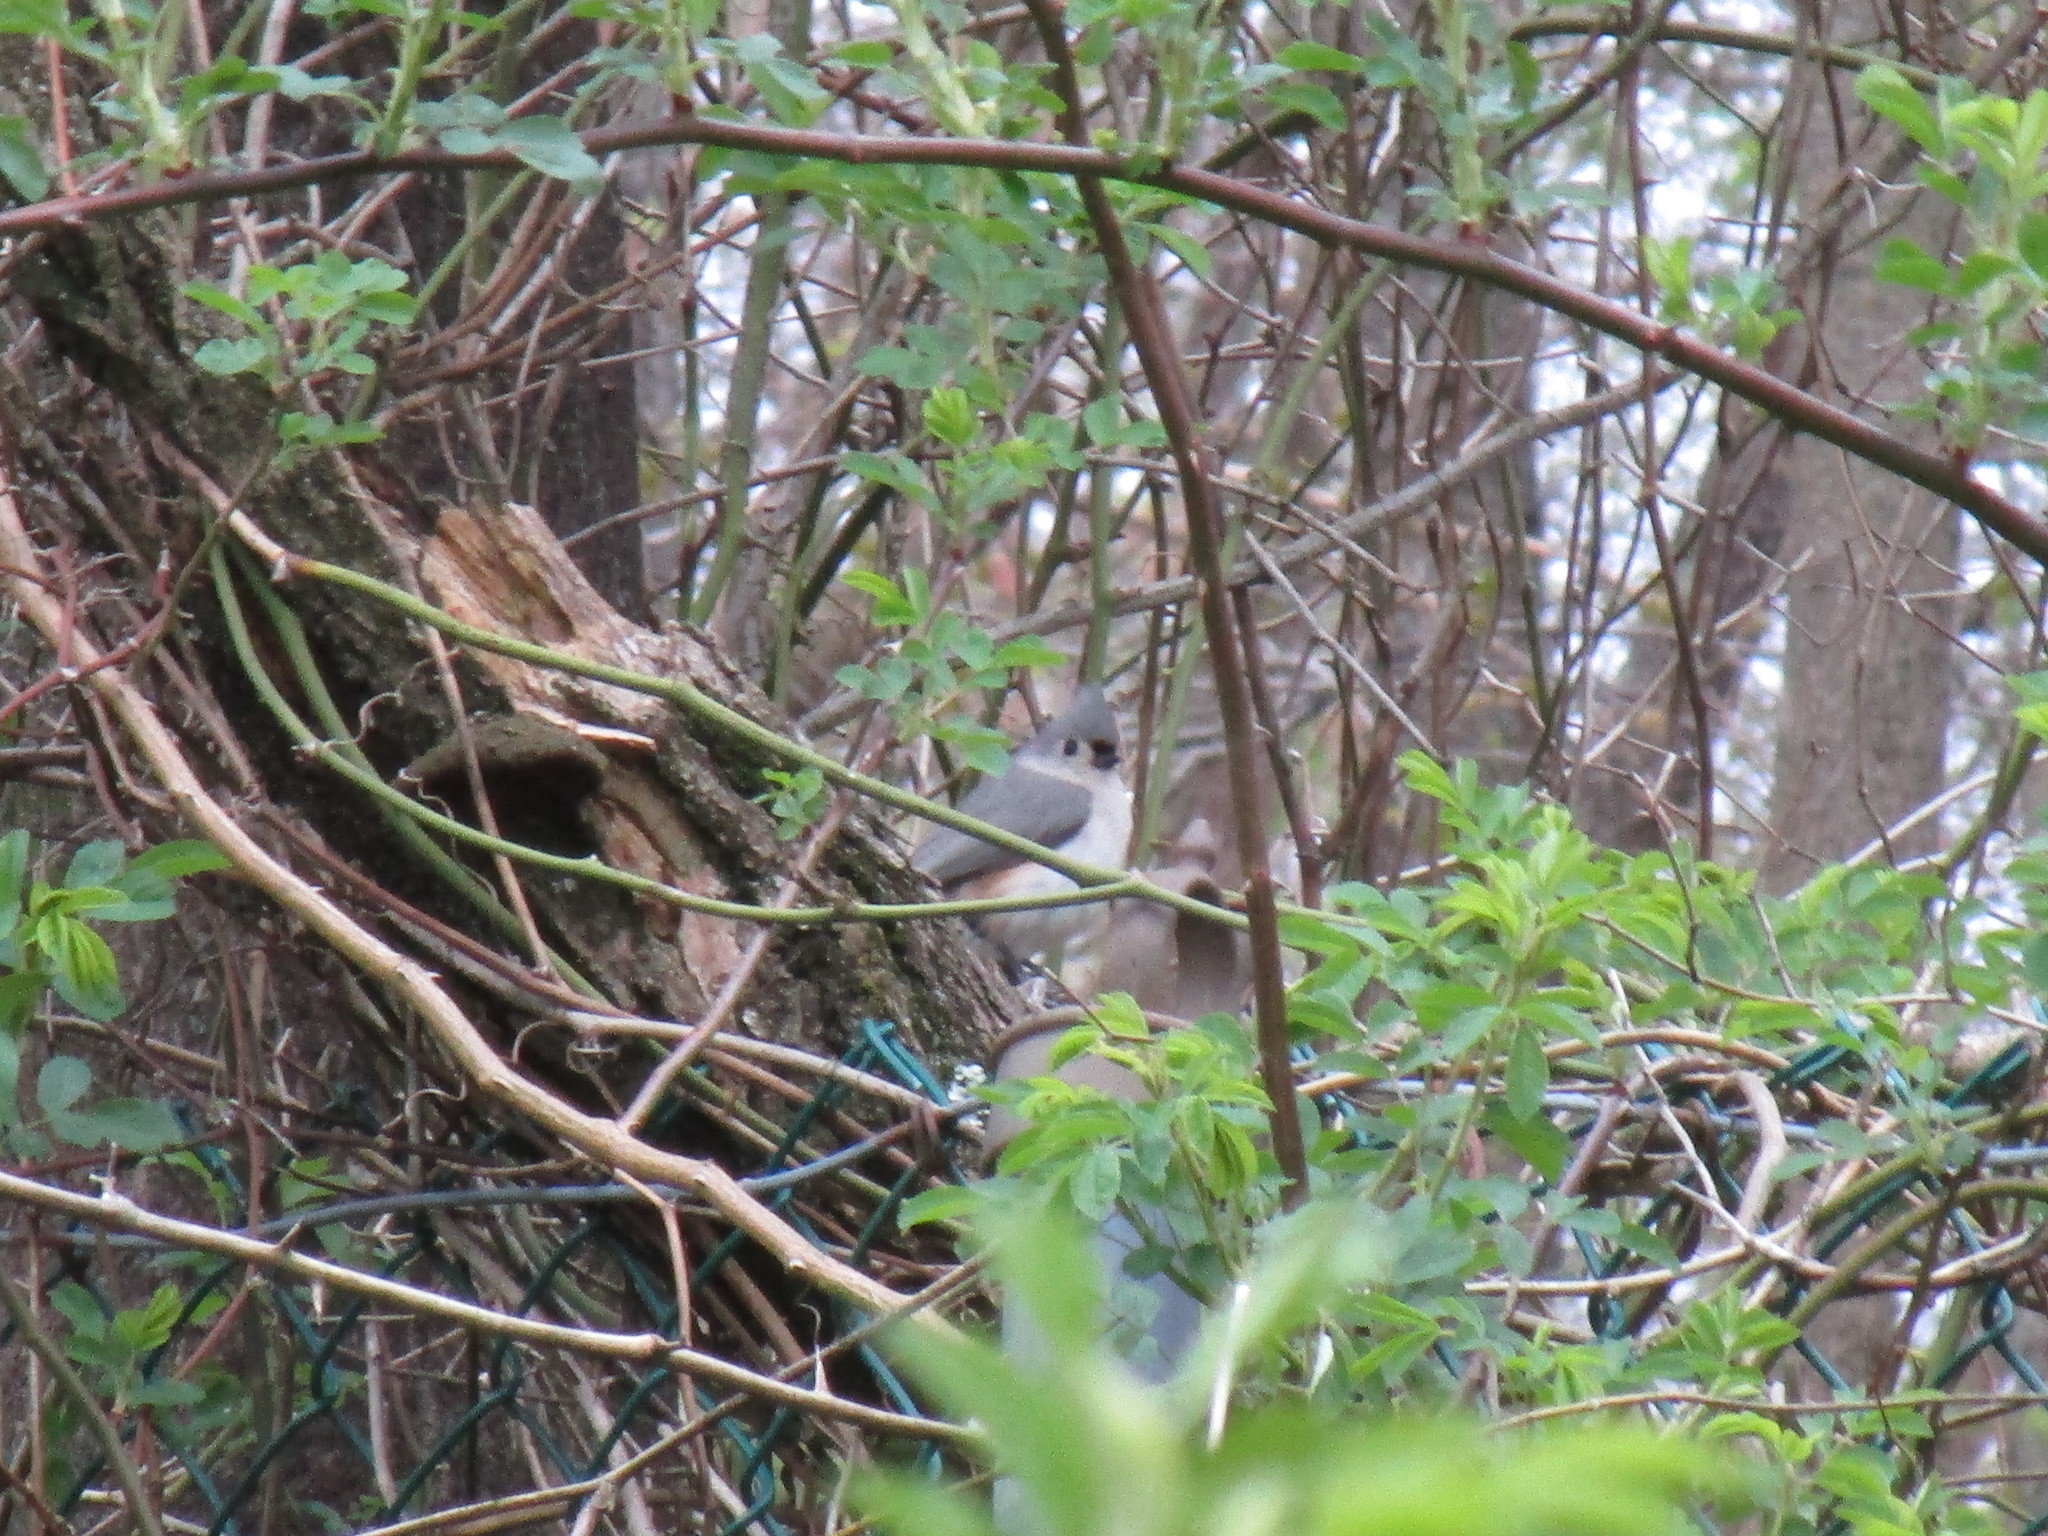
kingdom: Animalia
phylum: Chordata
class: Aves
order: Passeriformes
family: Paridae
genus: Baeolophus
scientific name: Baeolophus bicolor
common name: Tufted titmouse
